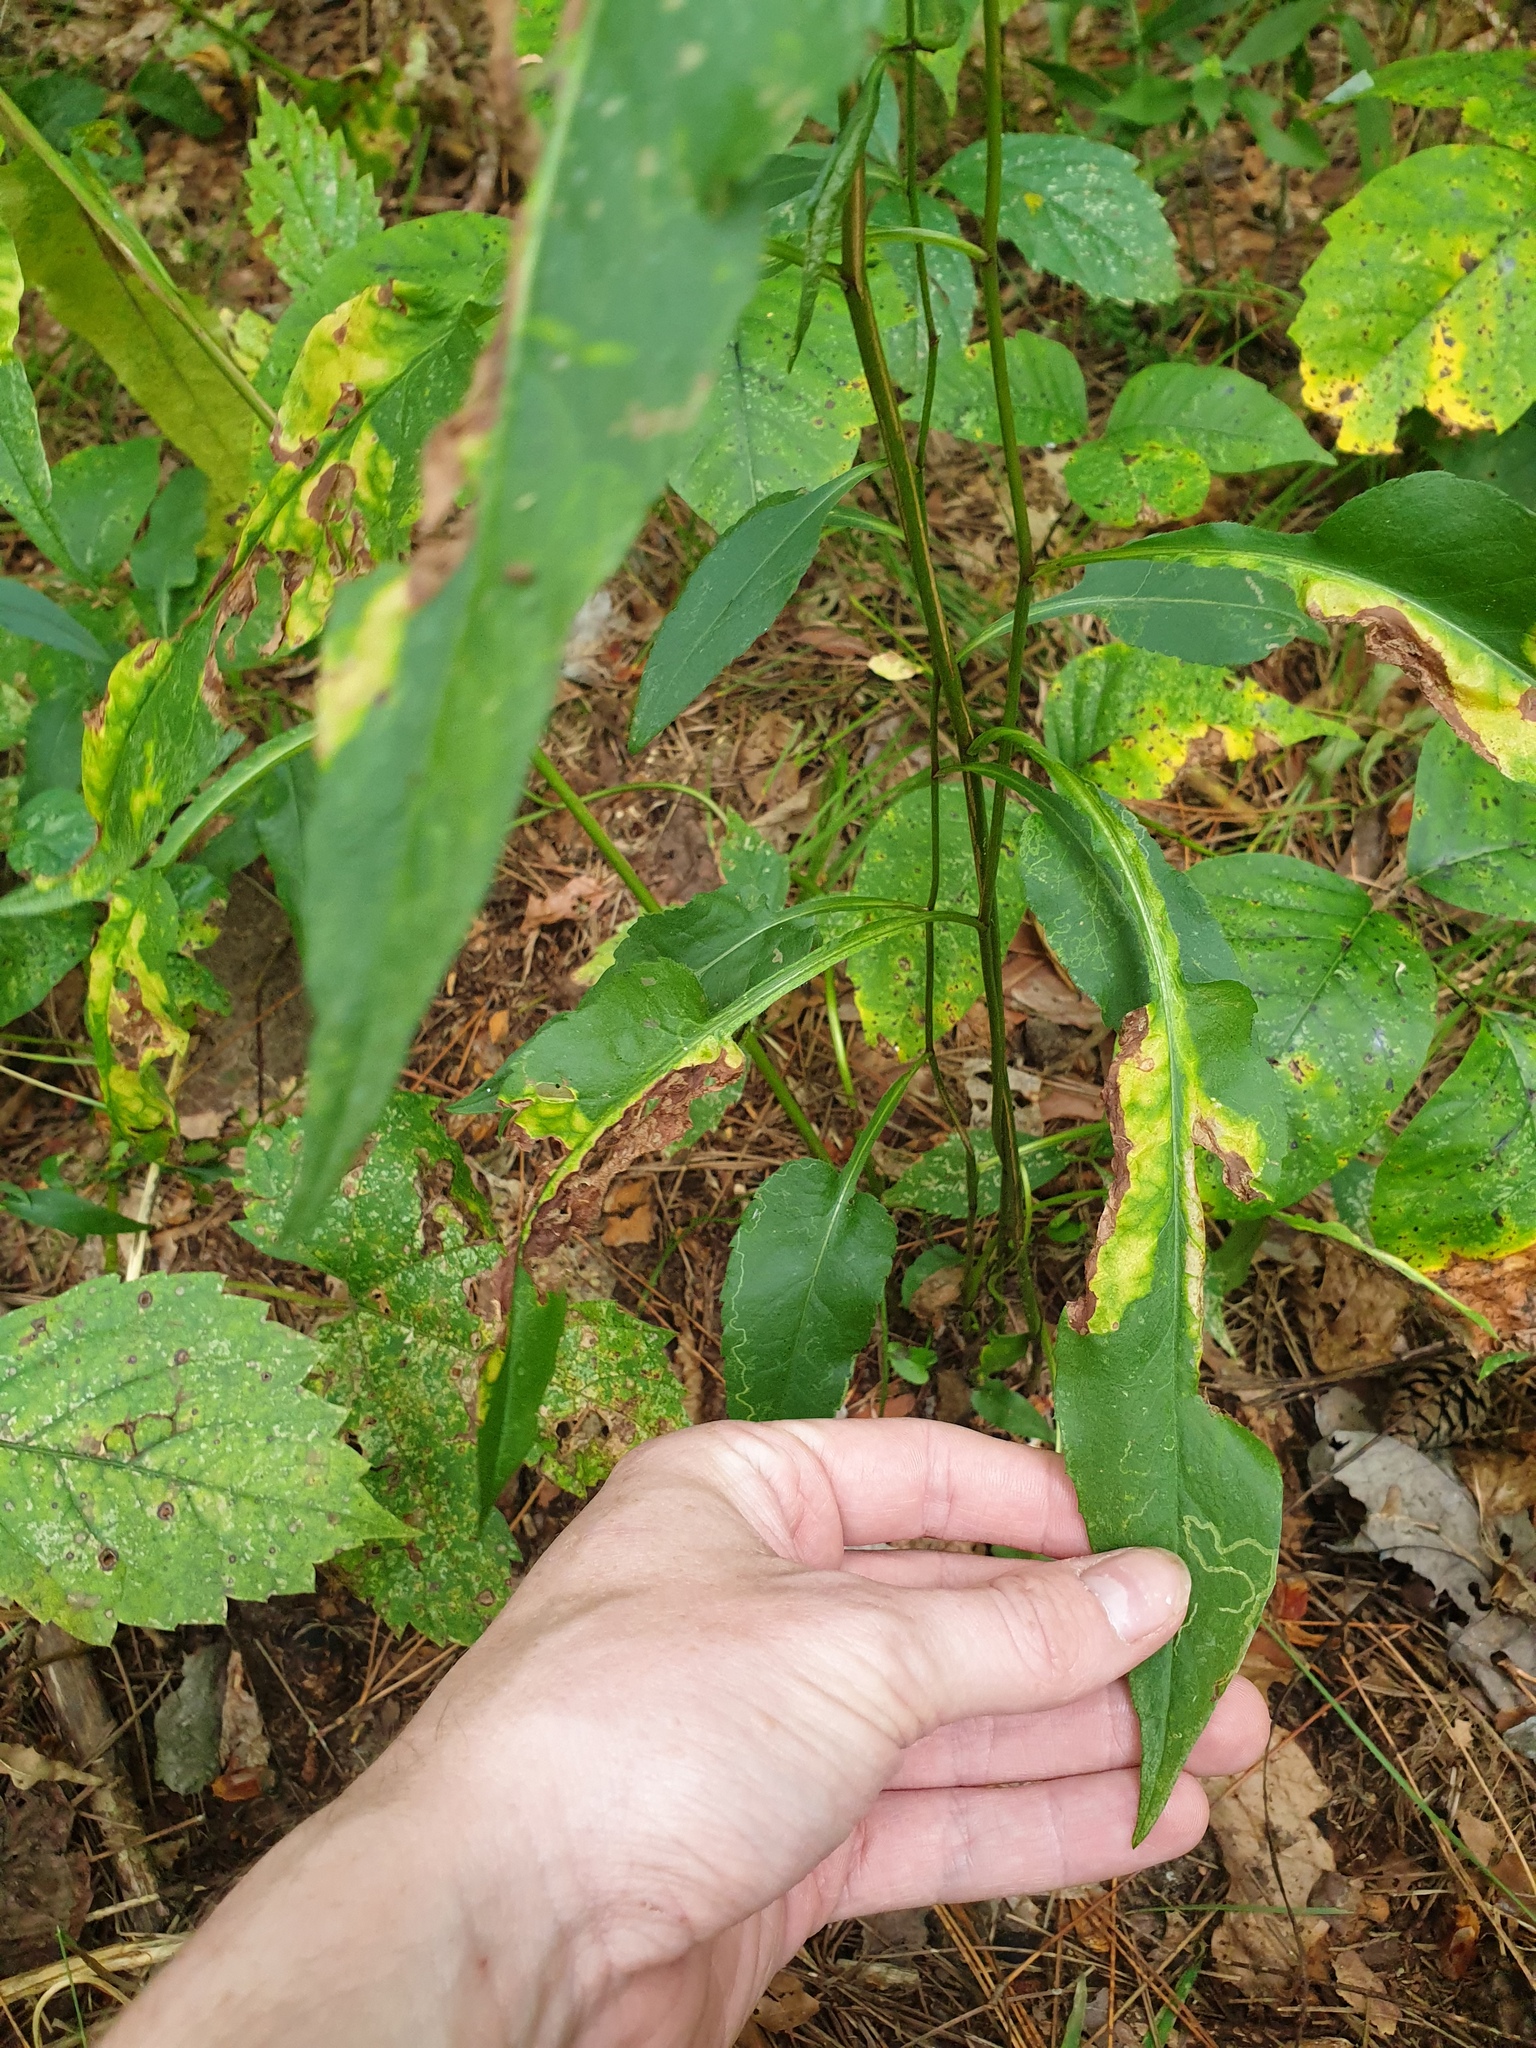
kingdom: Plantae
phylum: Tracheophyta
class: Magnoliopsida
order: Asterales
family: Asteraceae
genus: Symphyotrichum
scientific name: Symphyotrichum urophyllum
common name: Arrow-leaved aster
